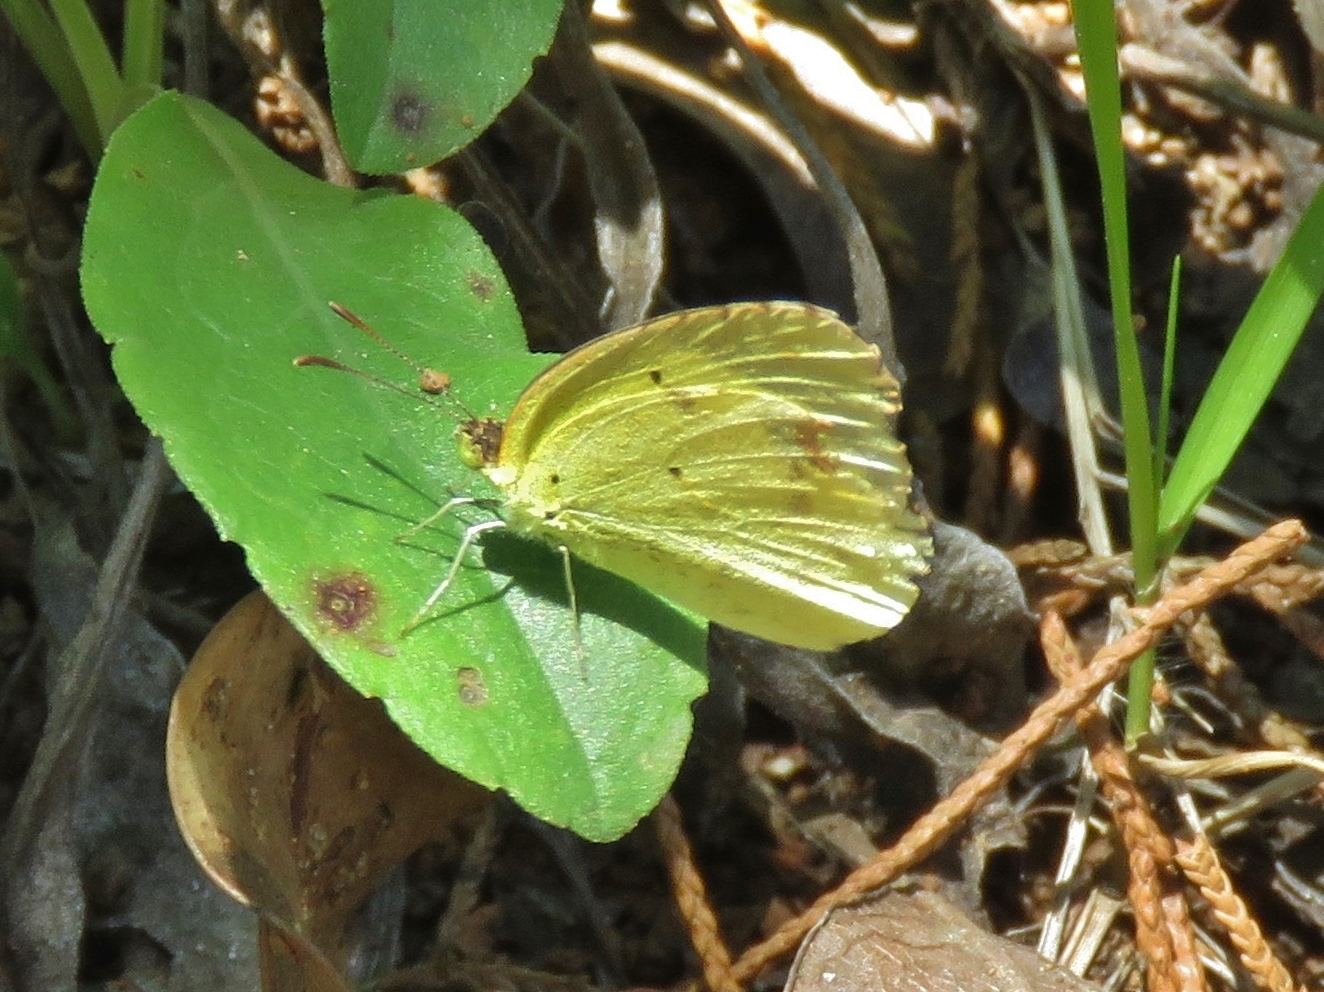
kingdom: Animalia
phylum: Arthropoda
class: Insecta
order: Lepidoptera
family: Pieridae
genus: Pyrisitia
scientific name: Pyrisitia lisa
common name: Little yellow
